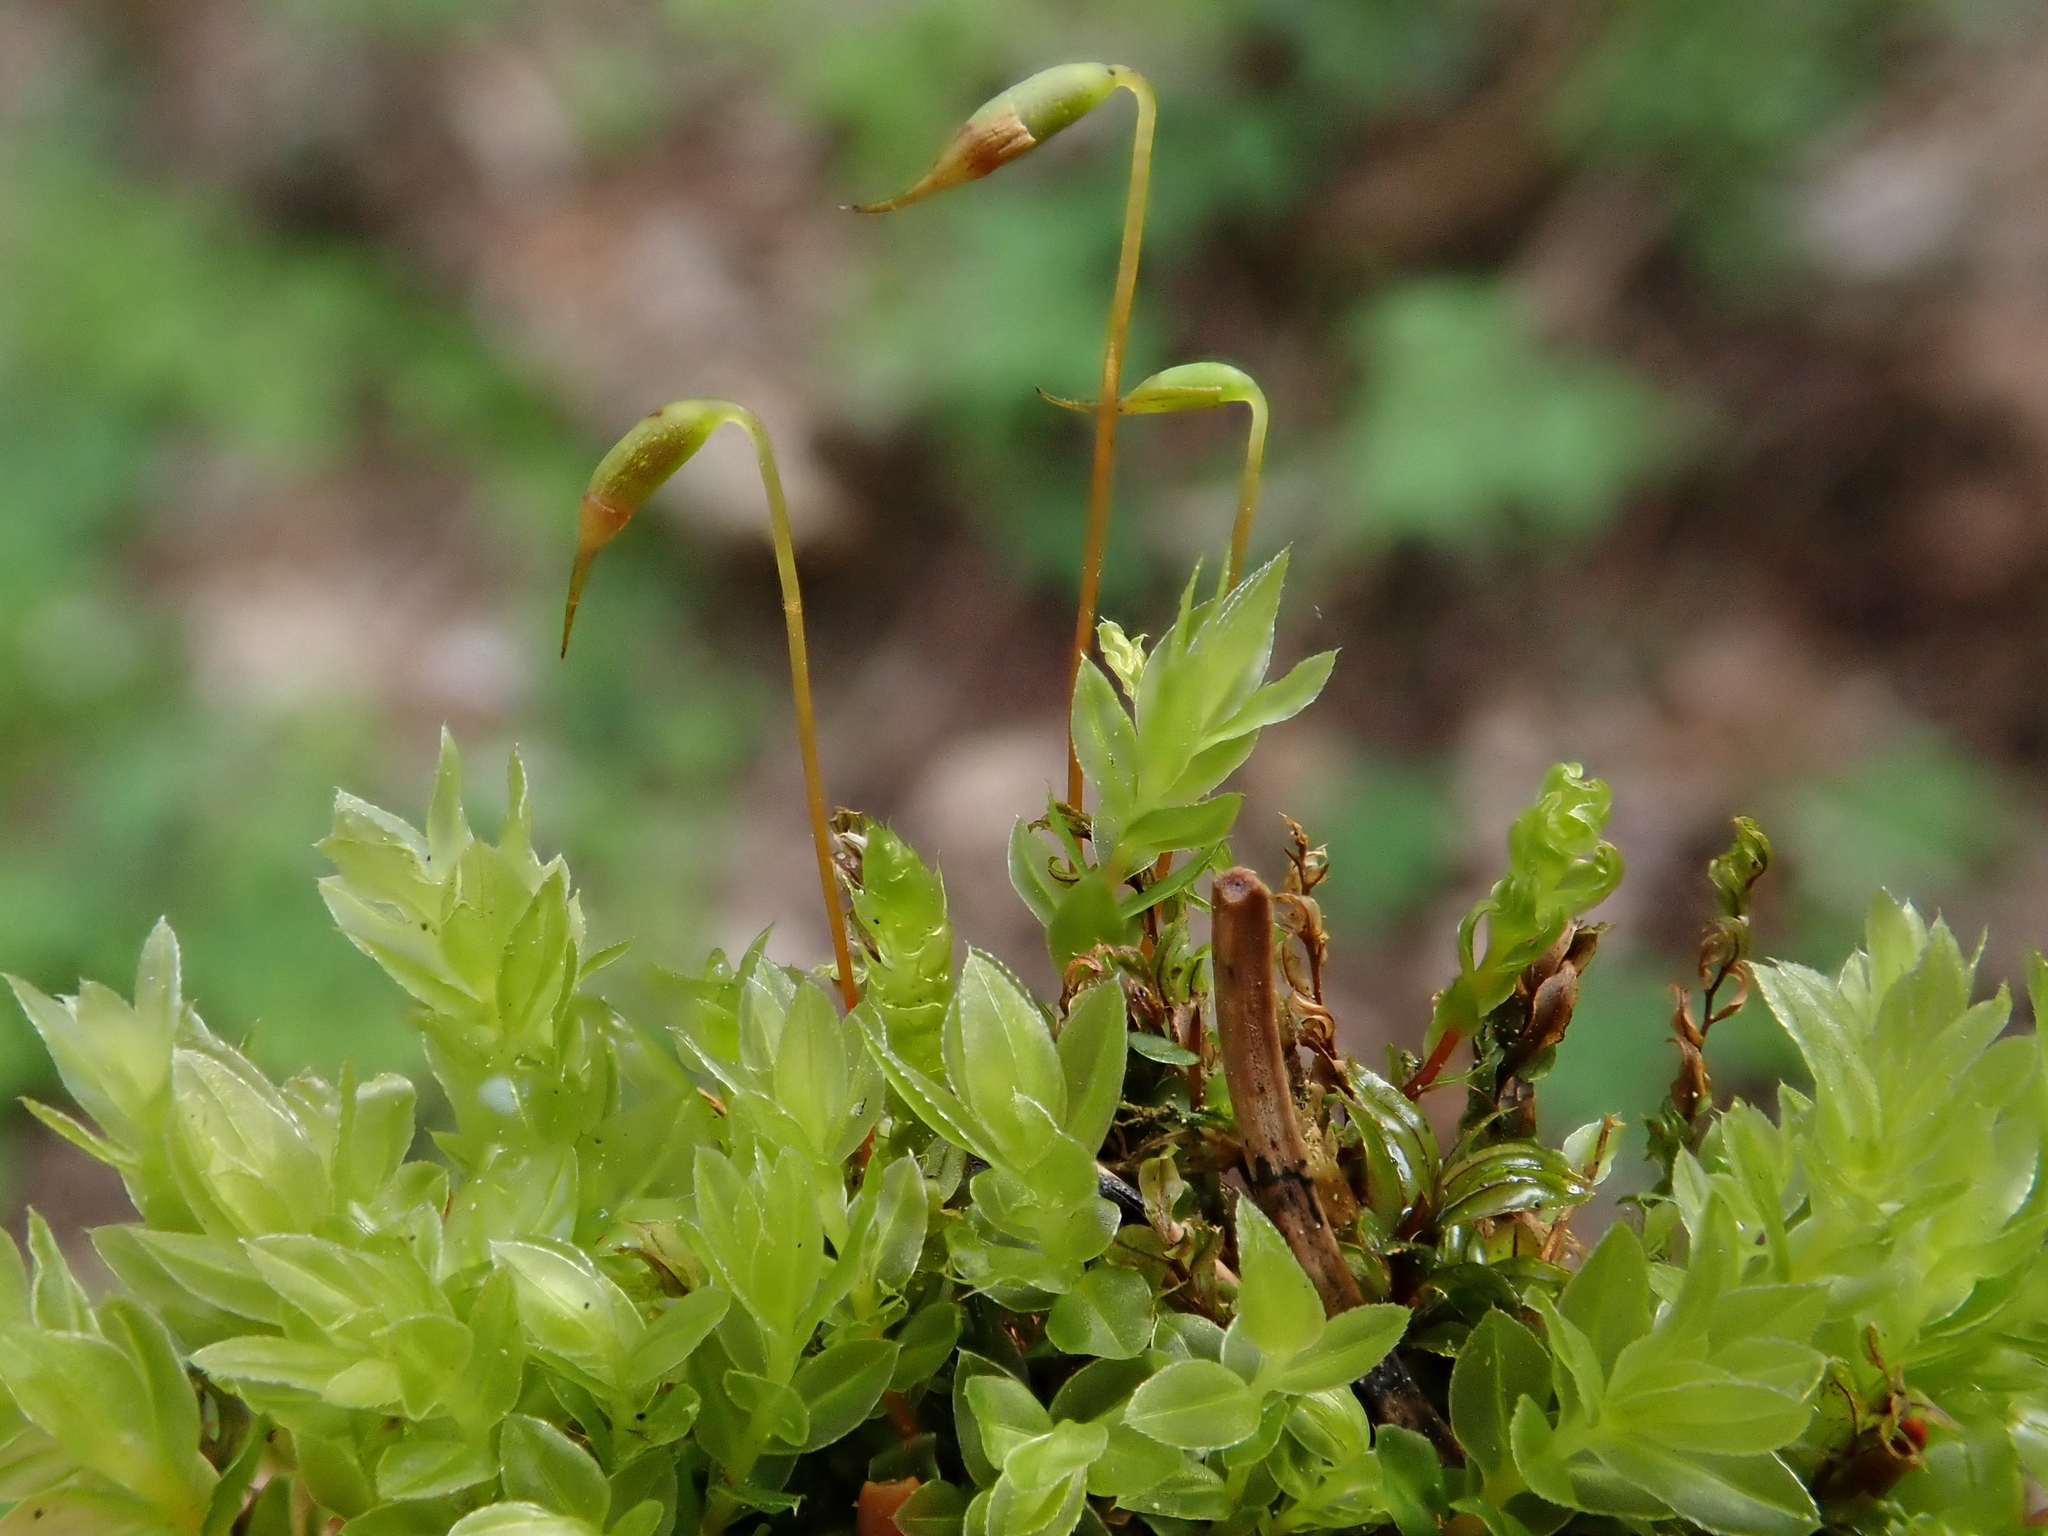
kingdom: Plantae
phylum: Bryophyta
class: Bryopsida
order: Bryales
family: Mniaceae
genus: Mnium
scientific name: Mnium marginatum
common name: Bordered leafy moss
